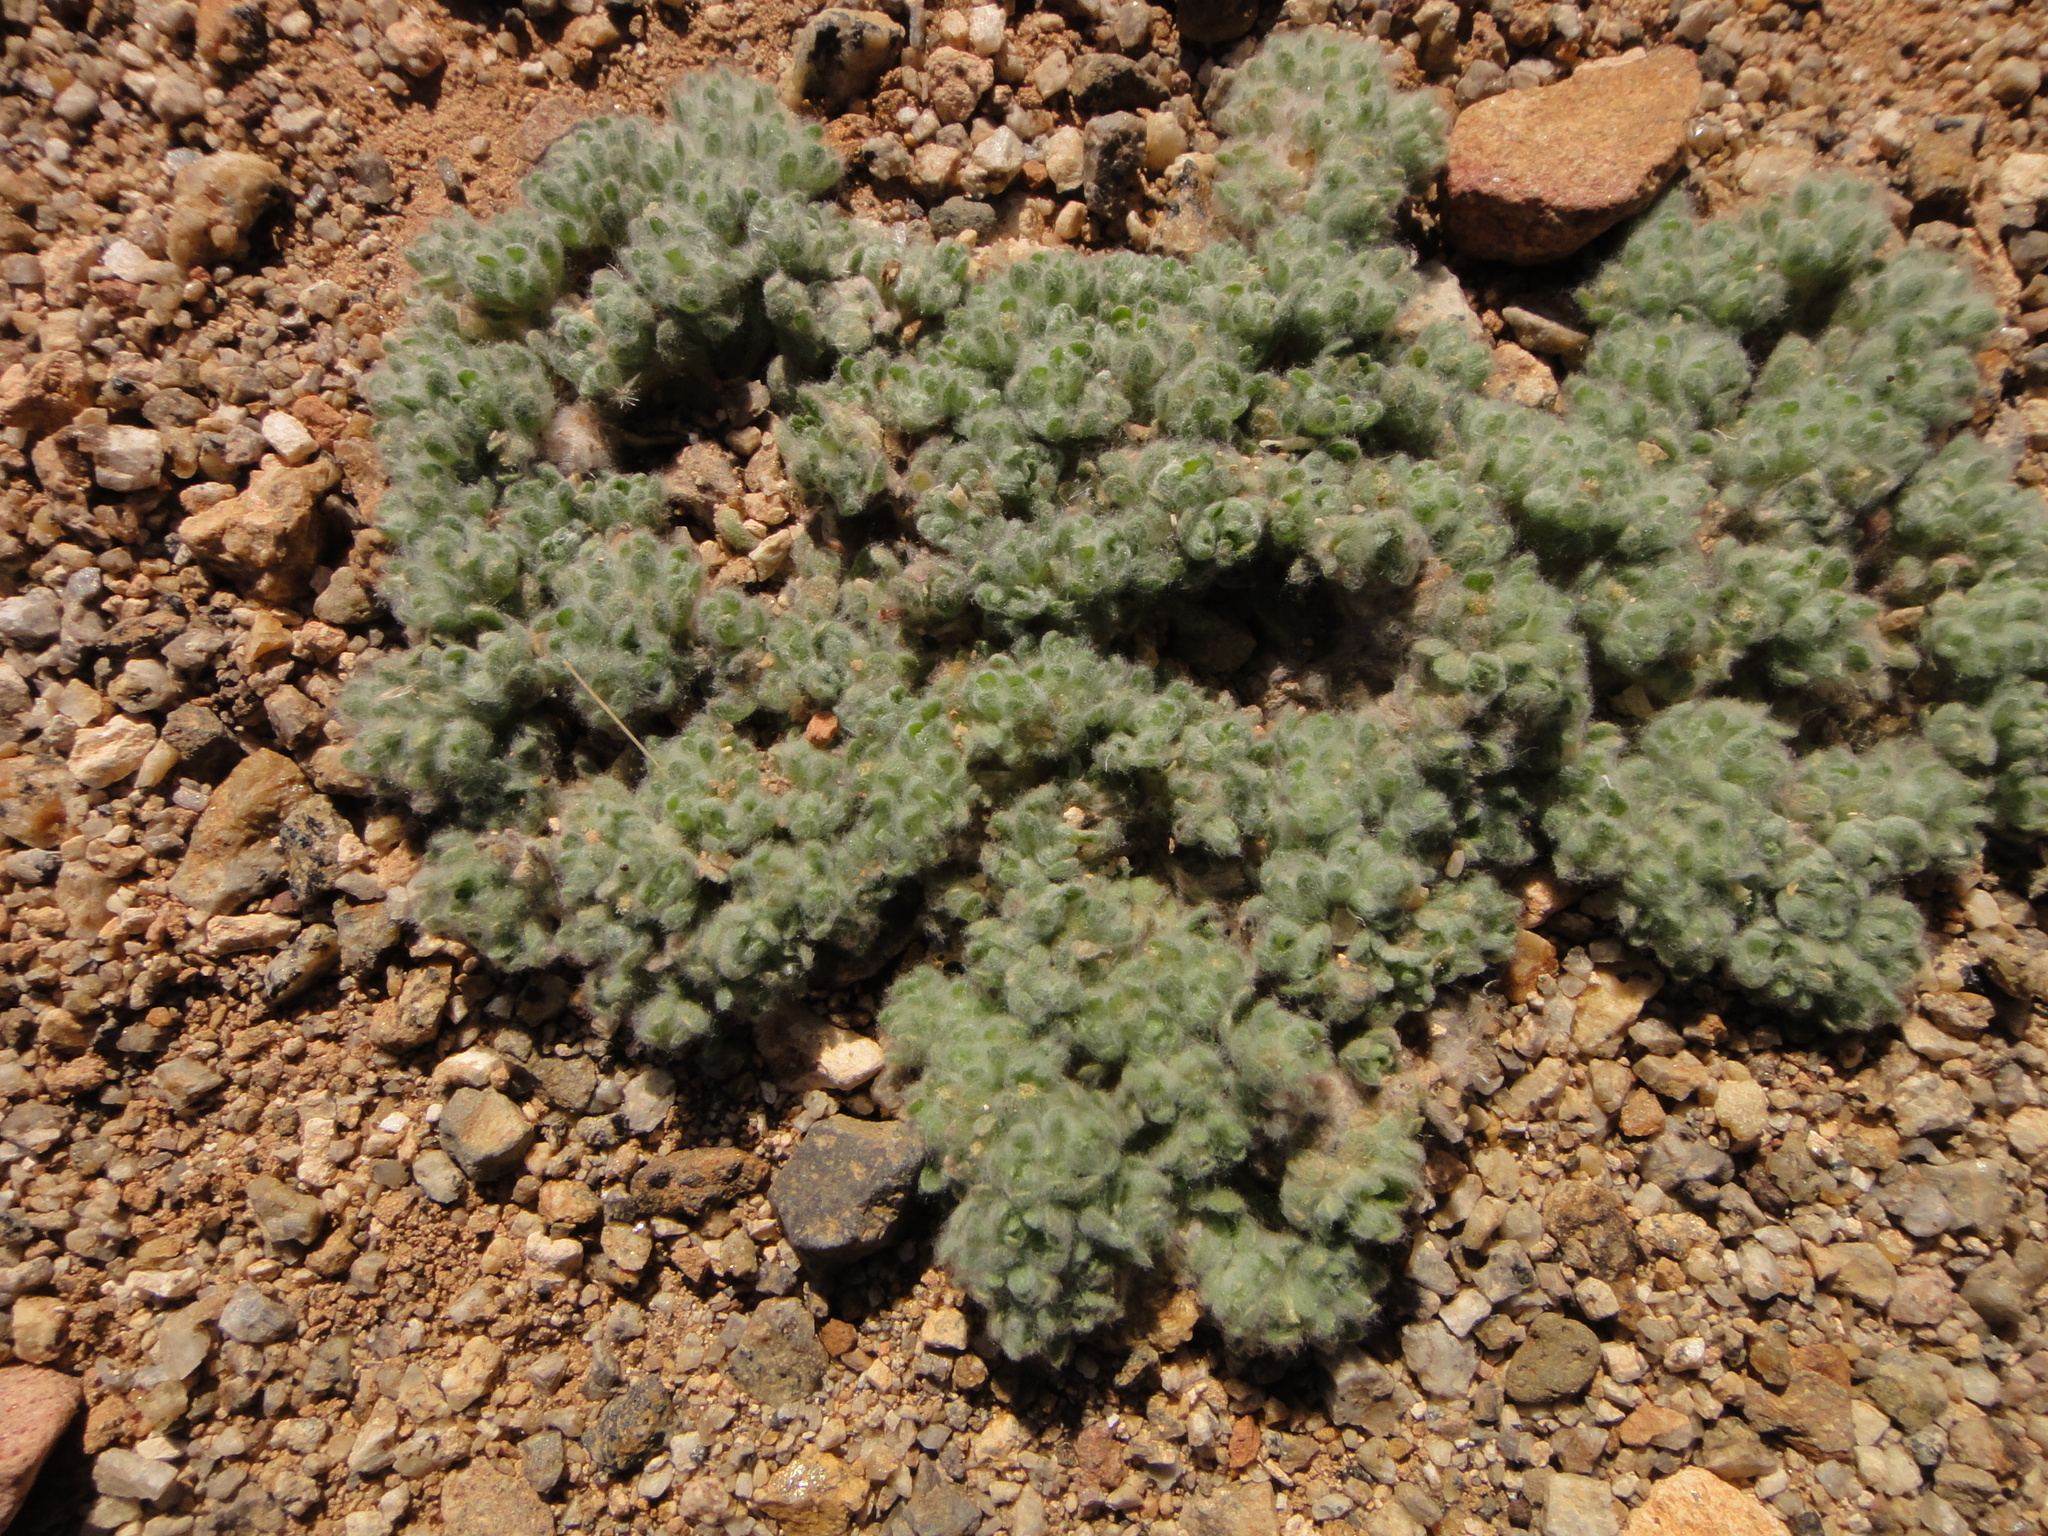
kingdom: Plantae
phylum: Tracheophyta
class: Magnoliopsida
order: Asterales
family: Asteraceae
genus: Lasiopogon
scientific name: Lasiopogon muscoides
